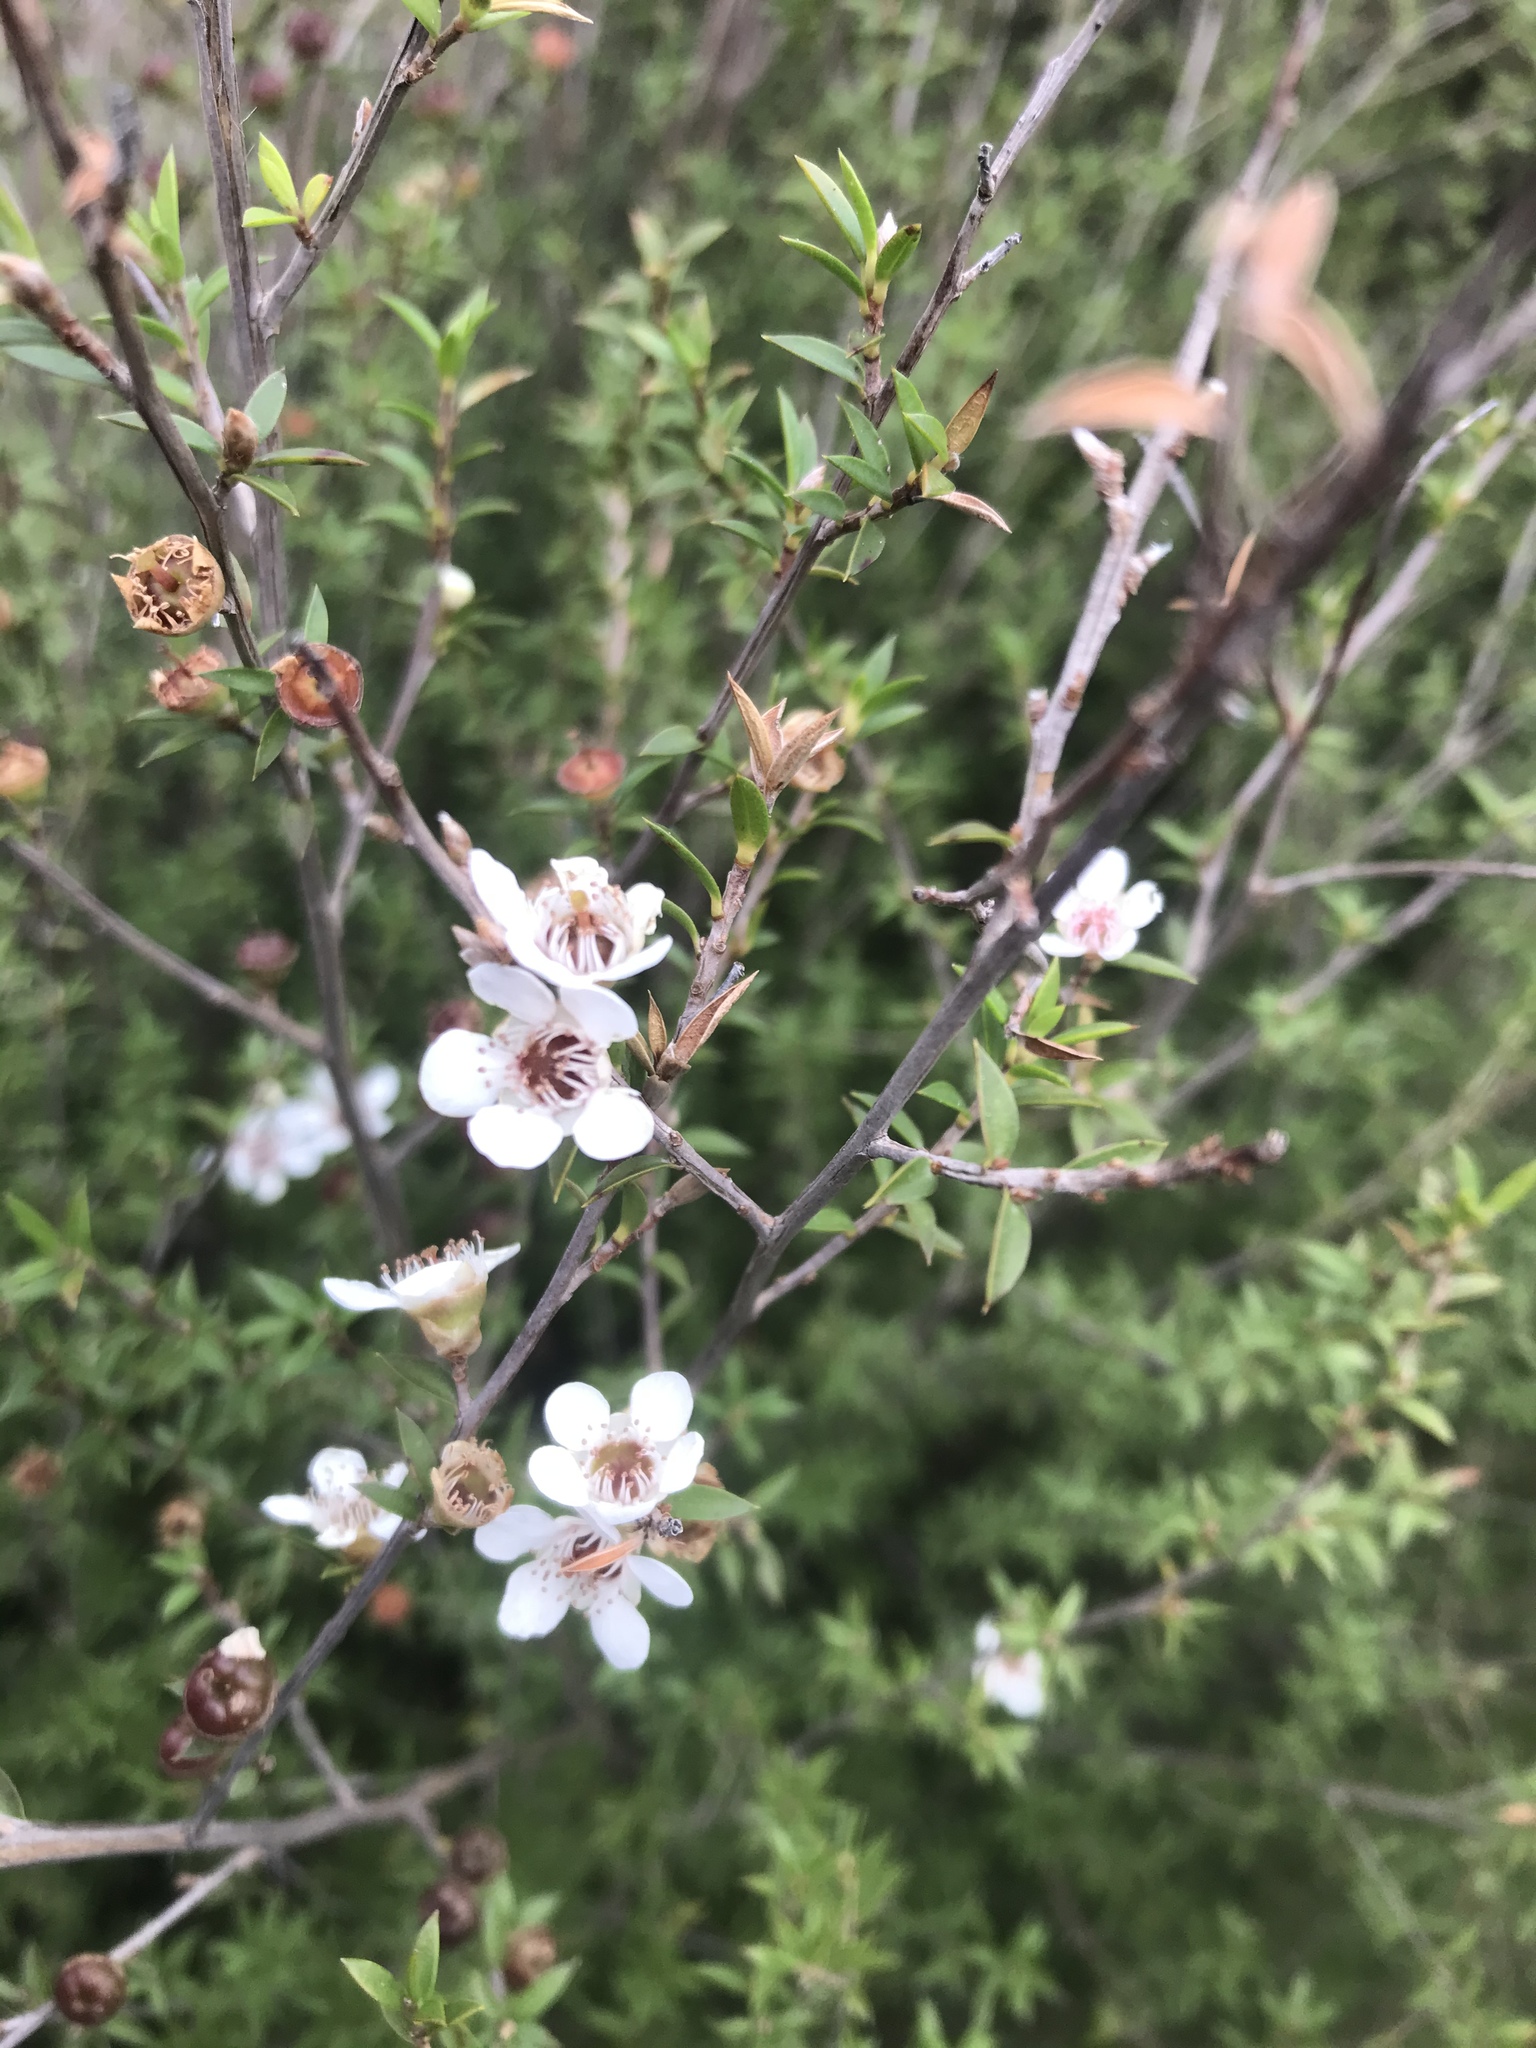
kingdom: Plantae
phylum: Tracheophyta
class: Magnoliopsida
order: Myrtales
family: Myrtaceae
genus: Leptospermum
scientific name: Leptospermum scoparium
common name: Broom tea-tree
